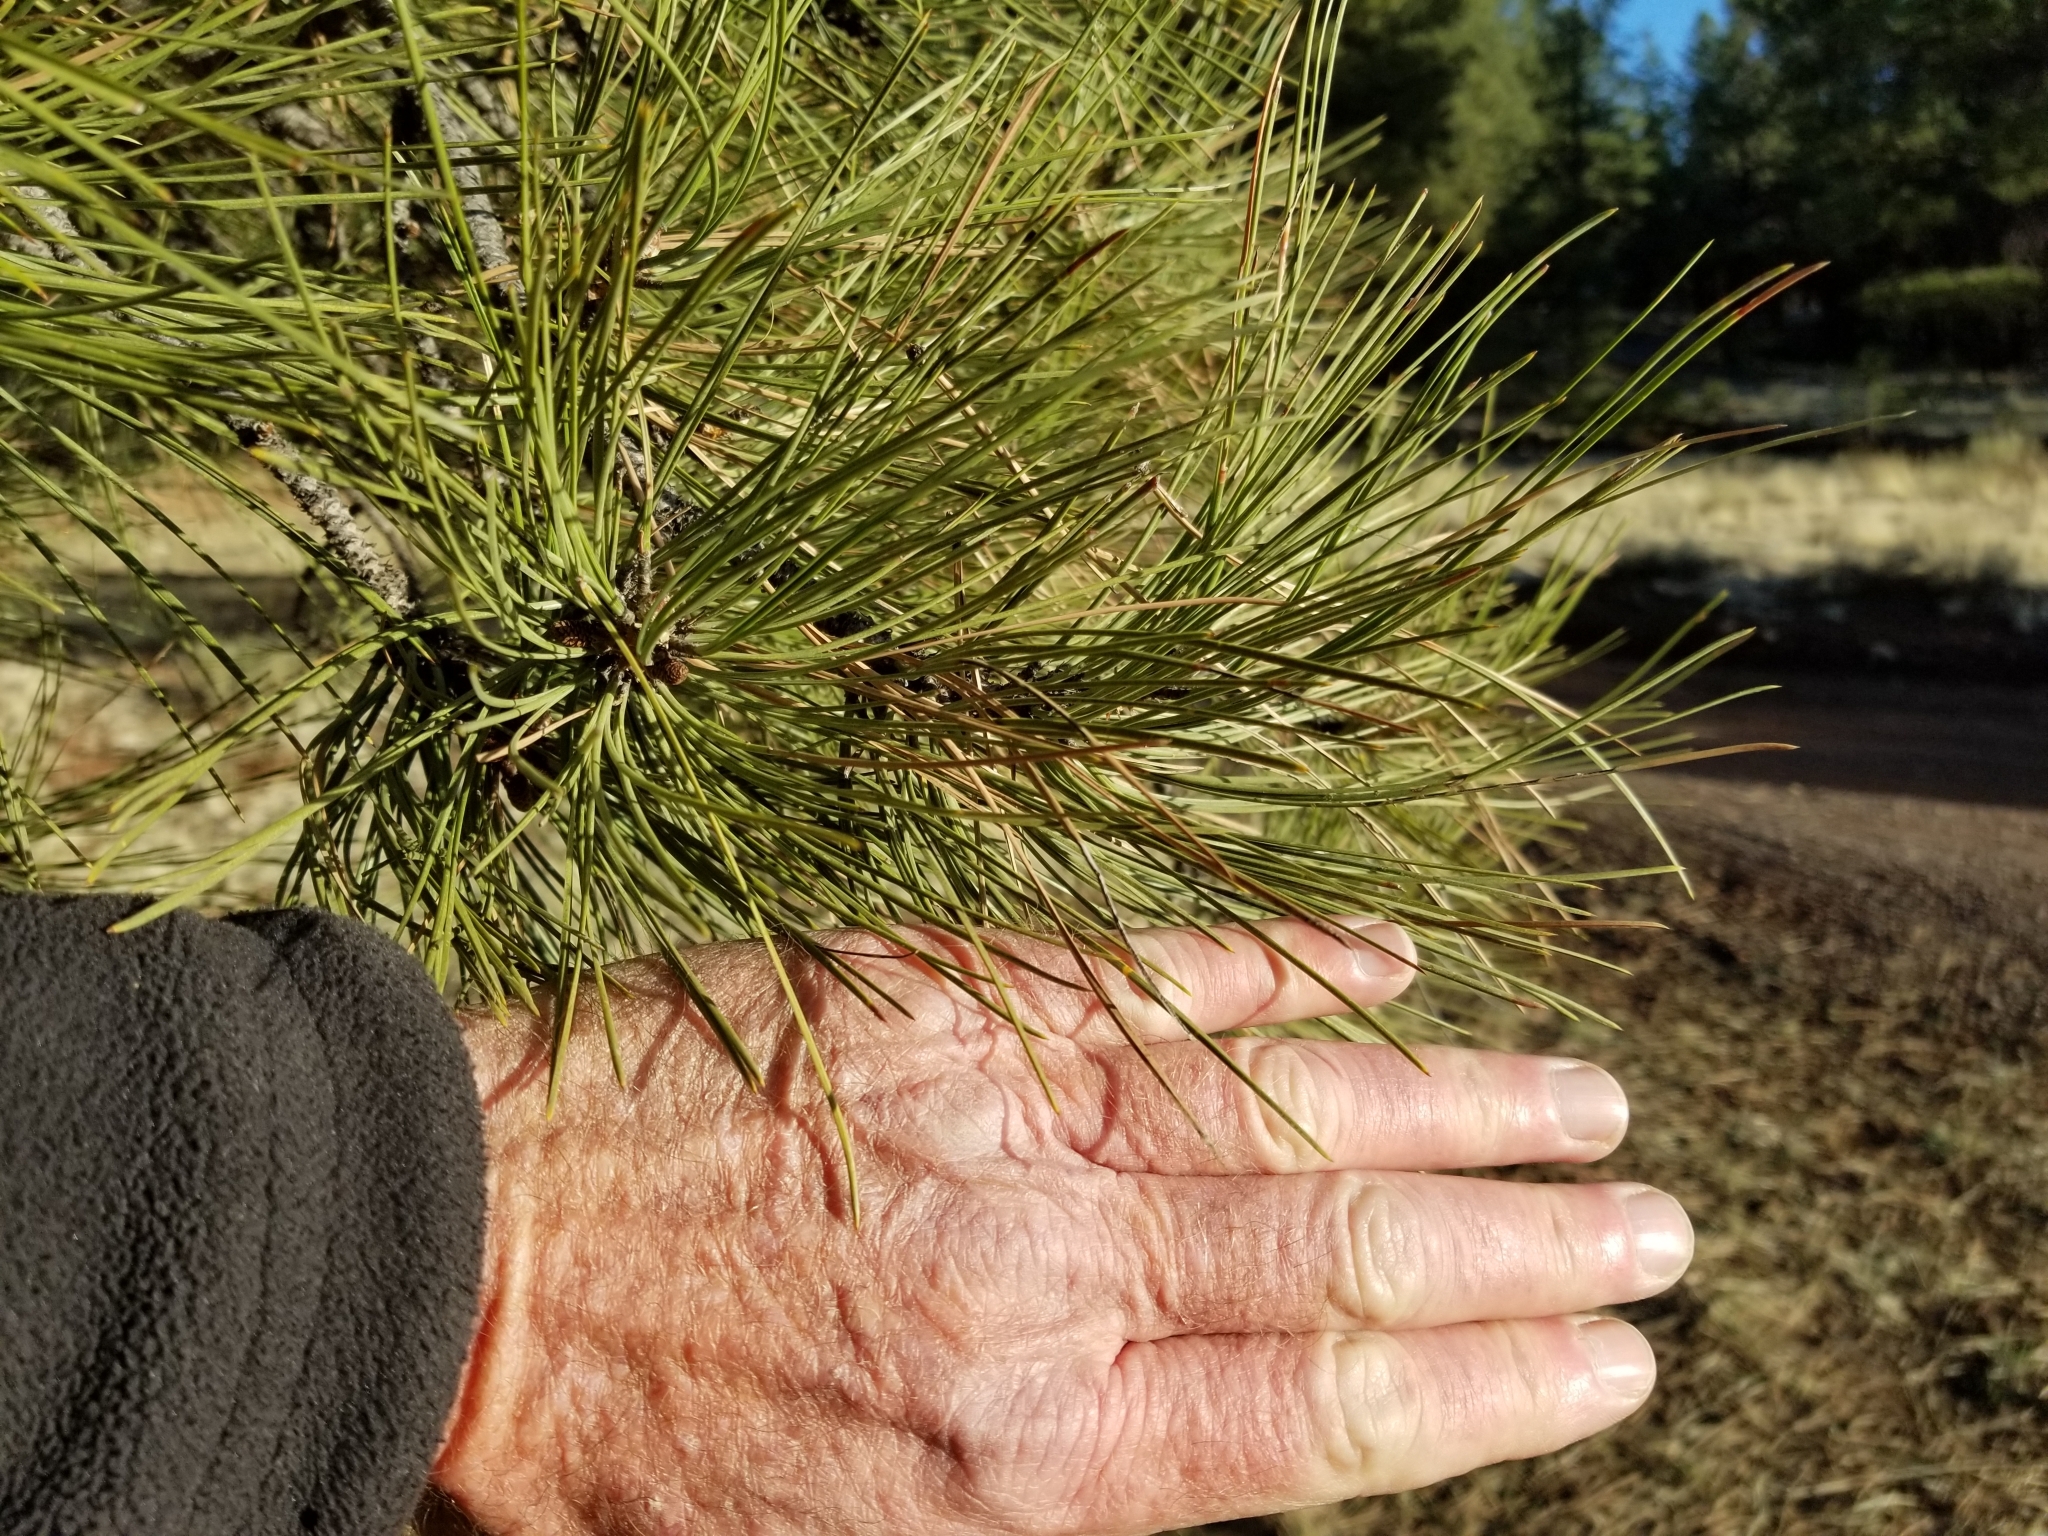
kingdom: Plantae
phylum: Tracheophyta
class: Pinopsida
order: Pinales
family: Pinaceae
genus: Pinus
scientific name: Pinus ponderosa
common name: Western yellow-pine
